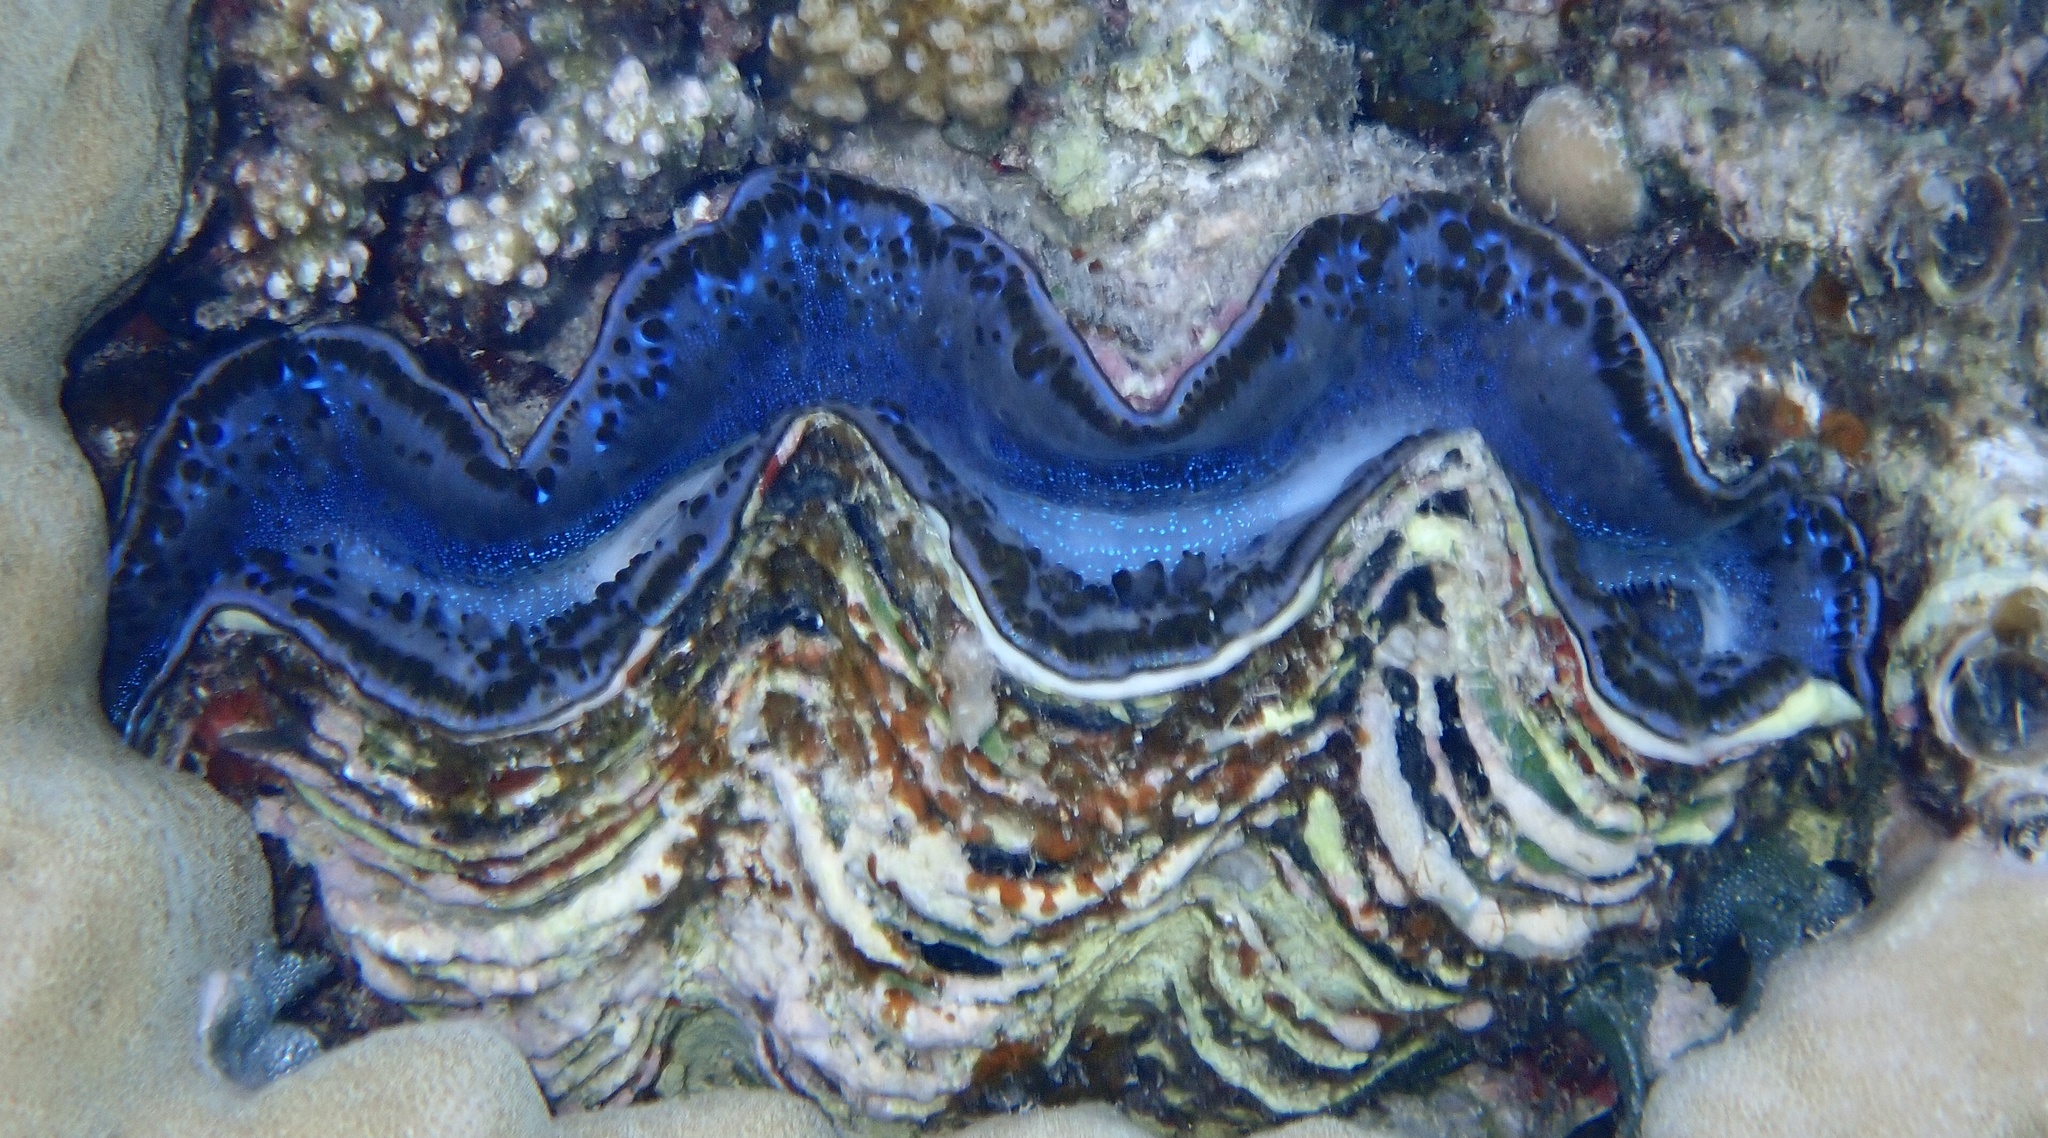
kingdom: Animalia
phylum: Mollusca
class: Bivalvia
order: Cardiida
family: Cardiidae
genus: Tridacna
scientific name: Tridacna maxima
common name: Small giant clam
